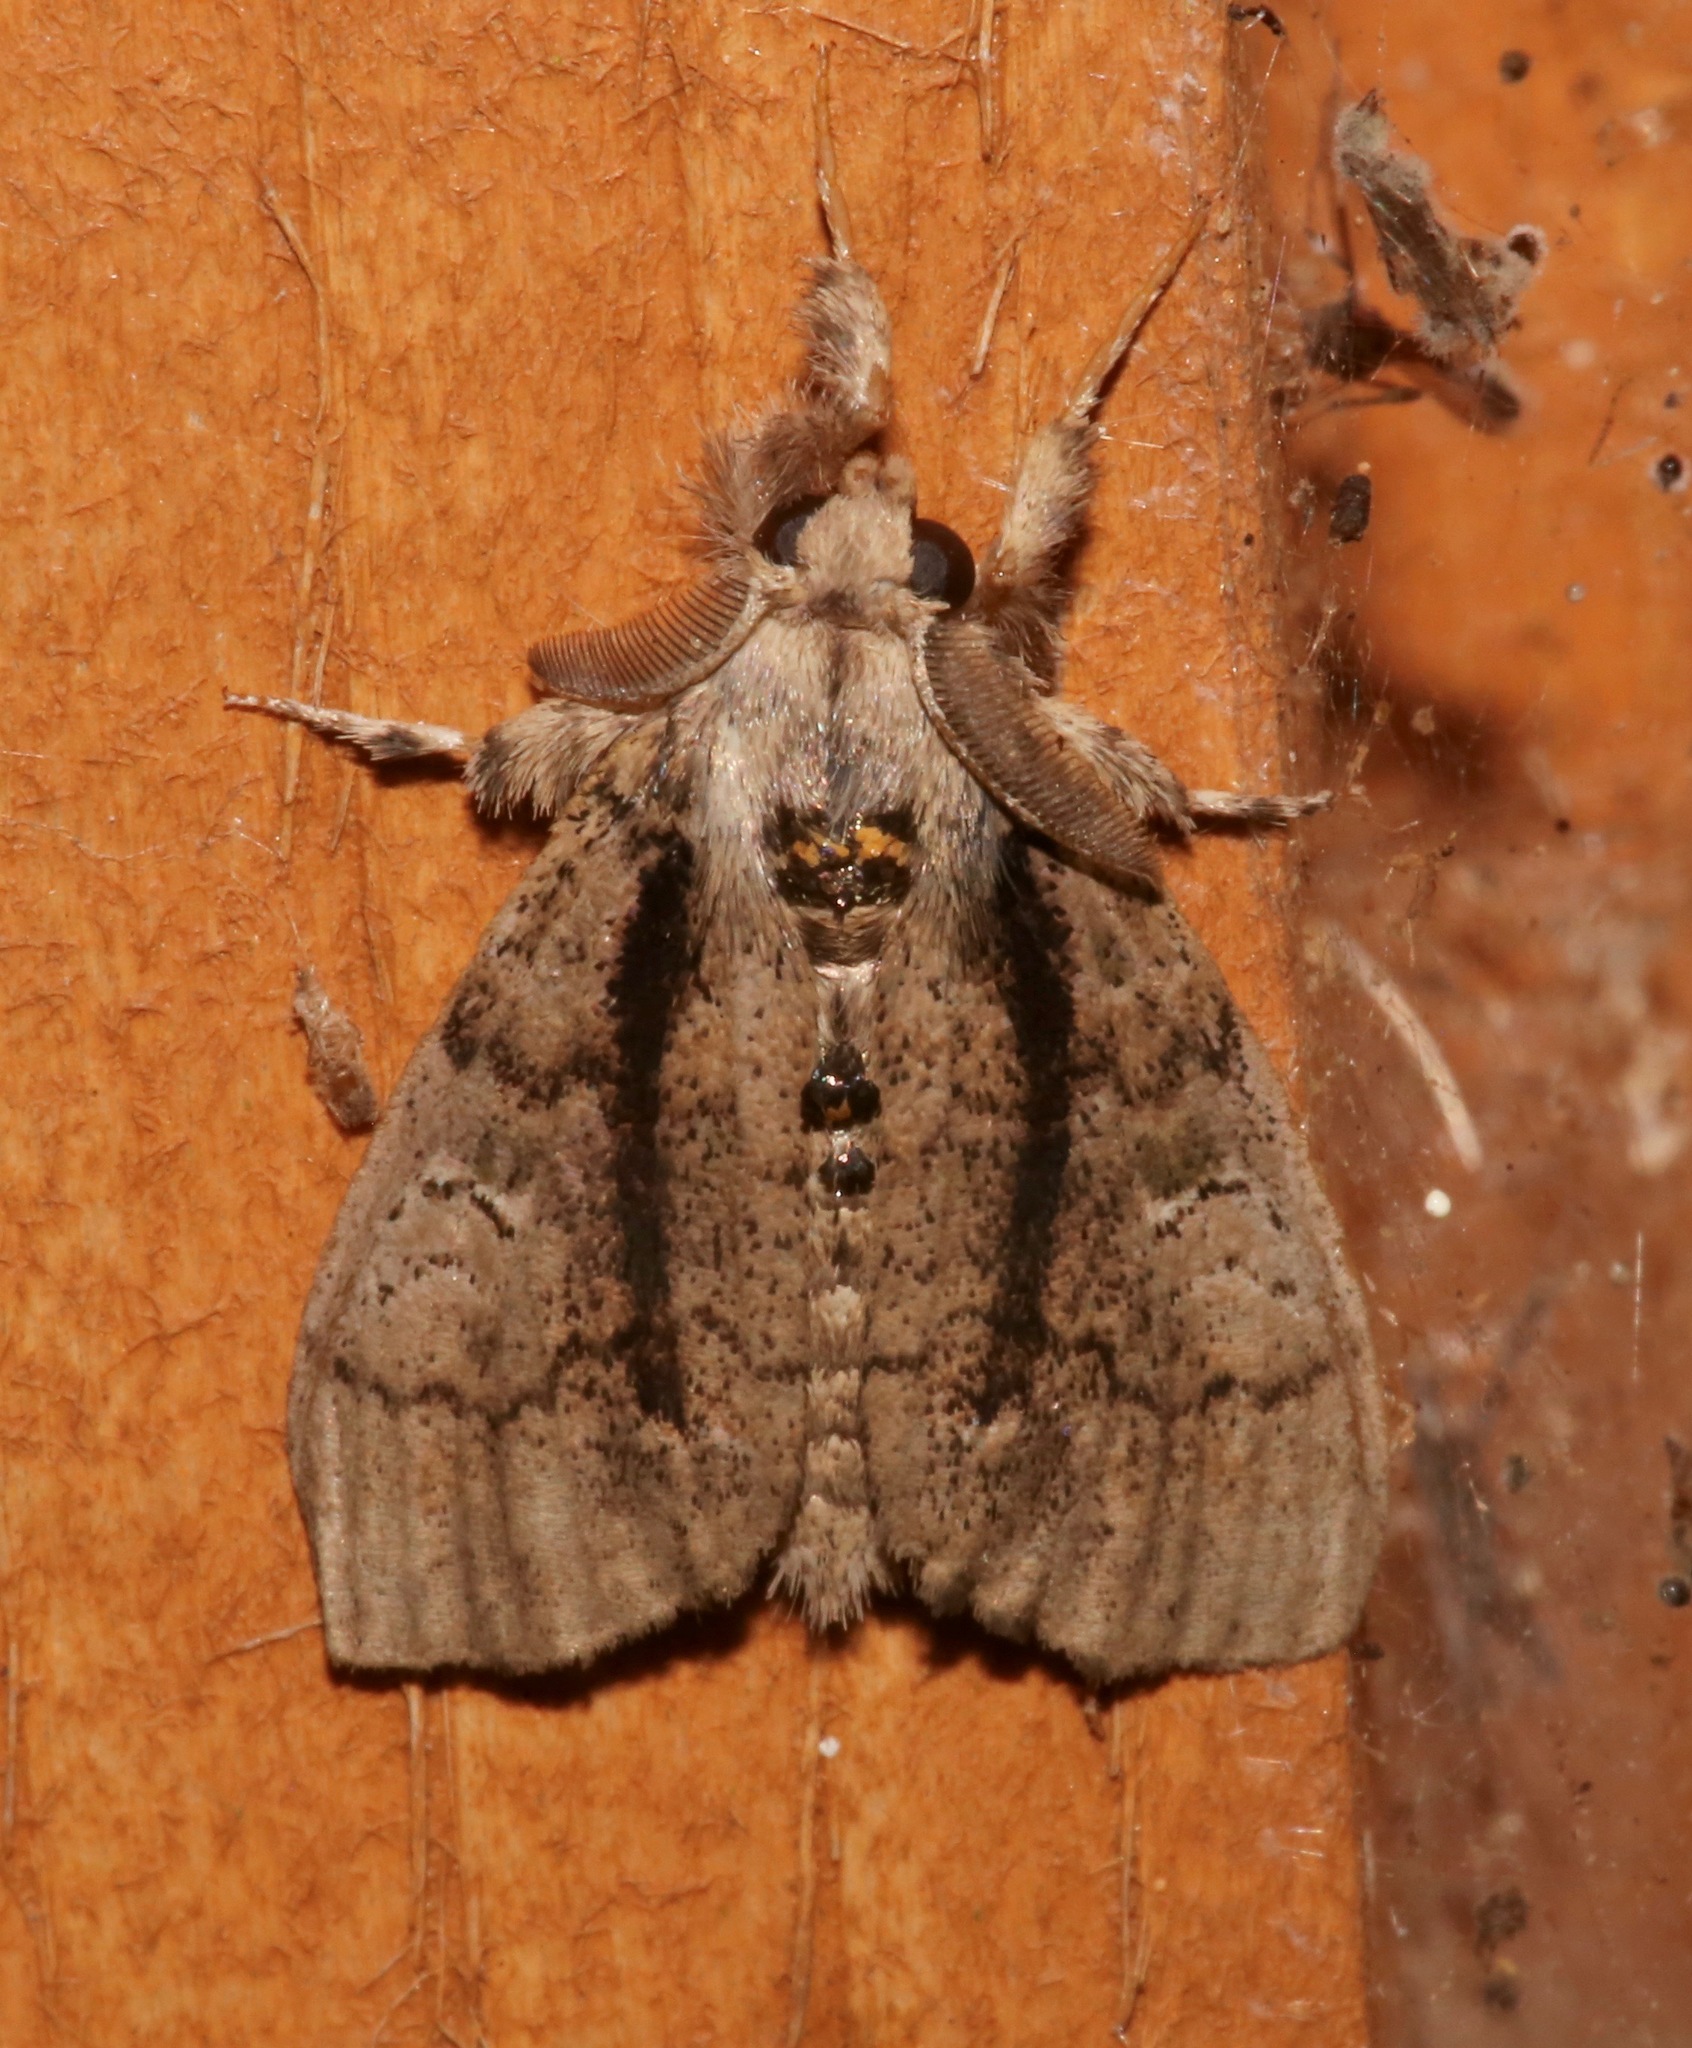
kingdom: Animalia
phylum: Arthropoda
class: Insecta
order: Lepidoptera
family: Erebidae
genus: Dasychira
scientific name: Dasychira tephra
